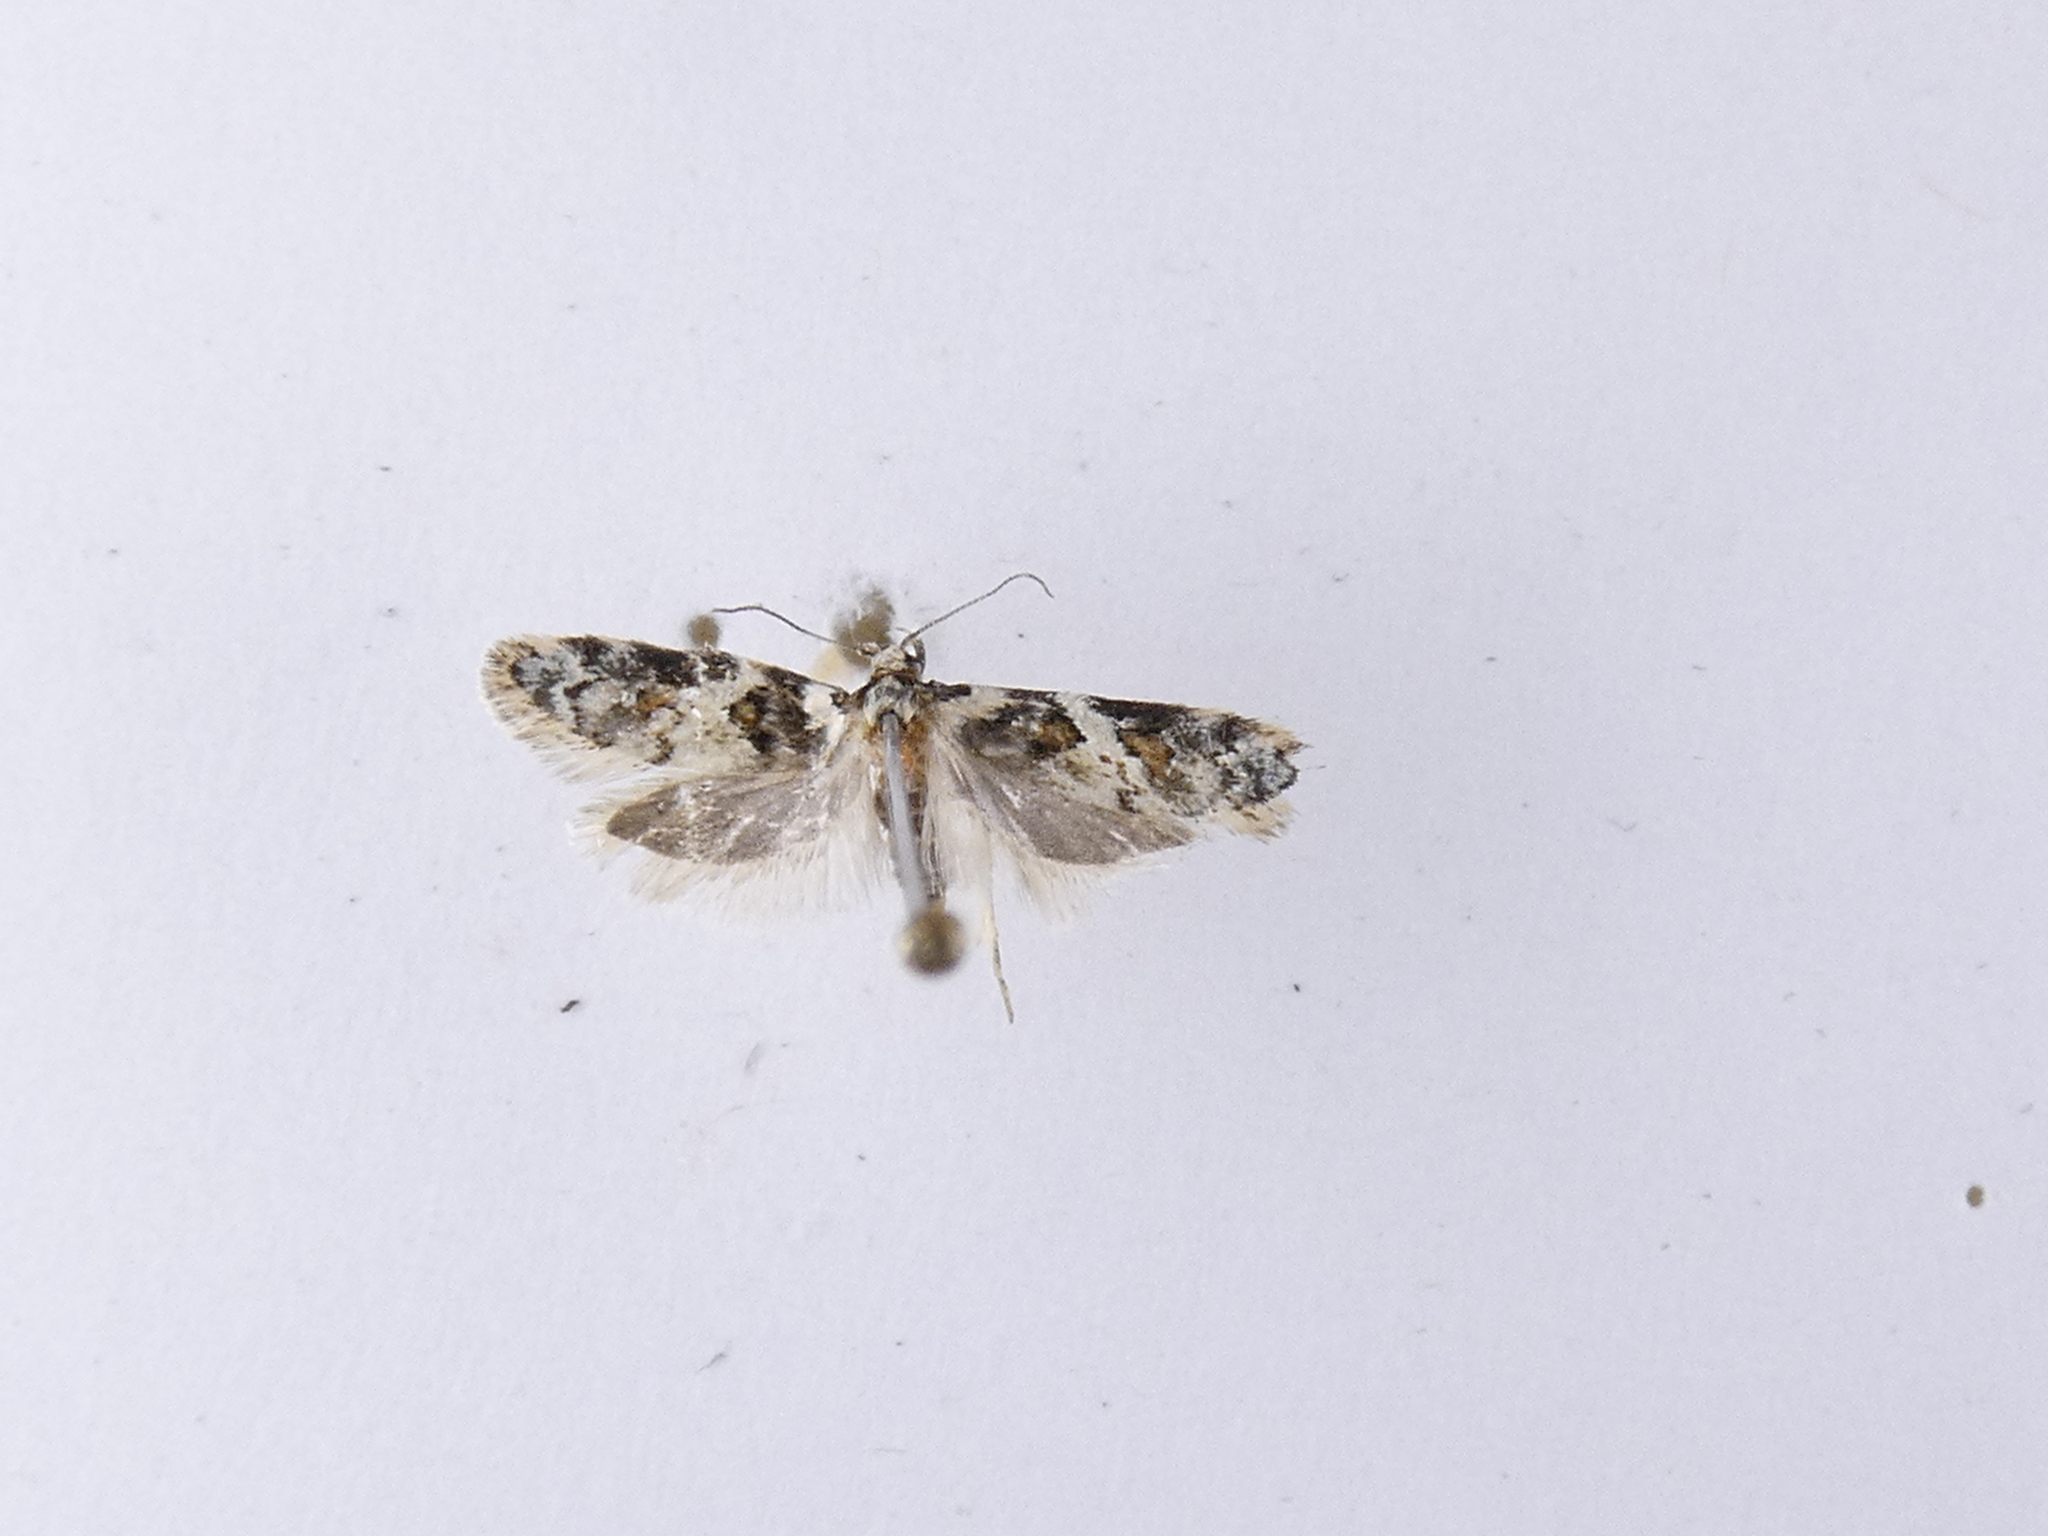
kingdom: Animalia
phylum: Arthropoda
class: Insecta
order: Lepidoptera
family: Oecophoridae
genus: Trachypepla
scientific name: Trachypepla galaxias
